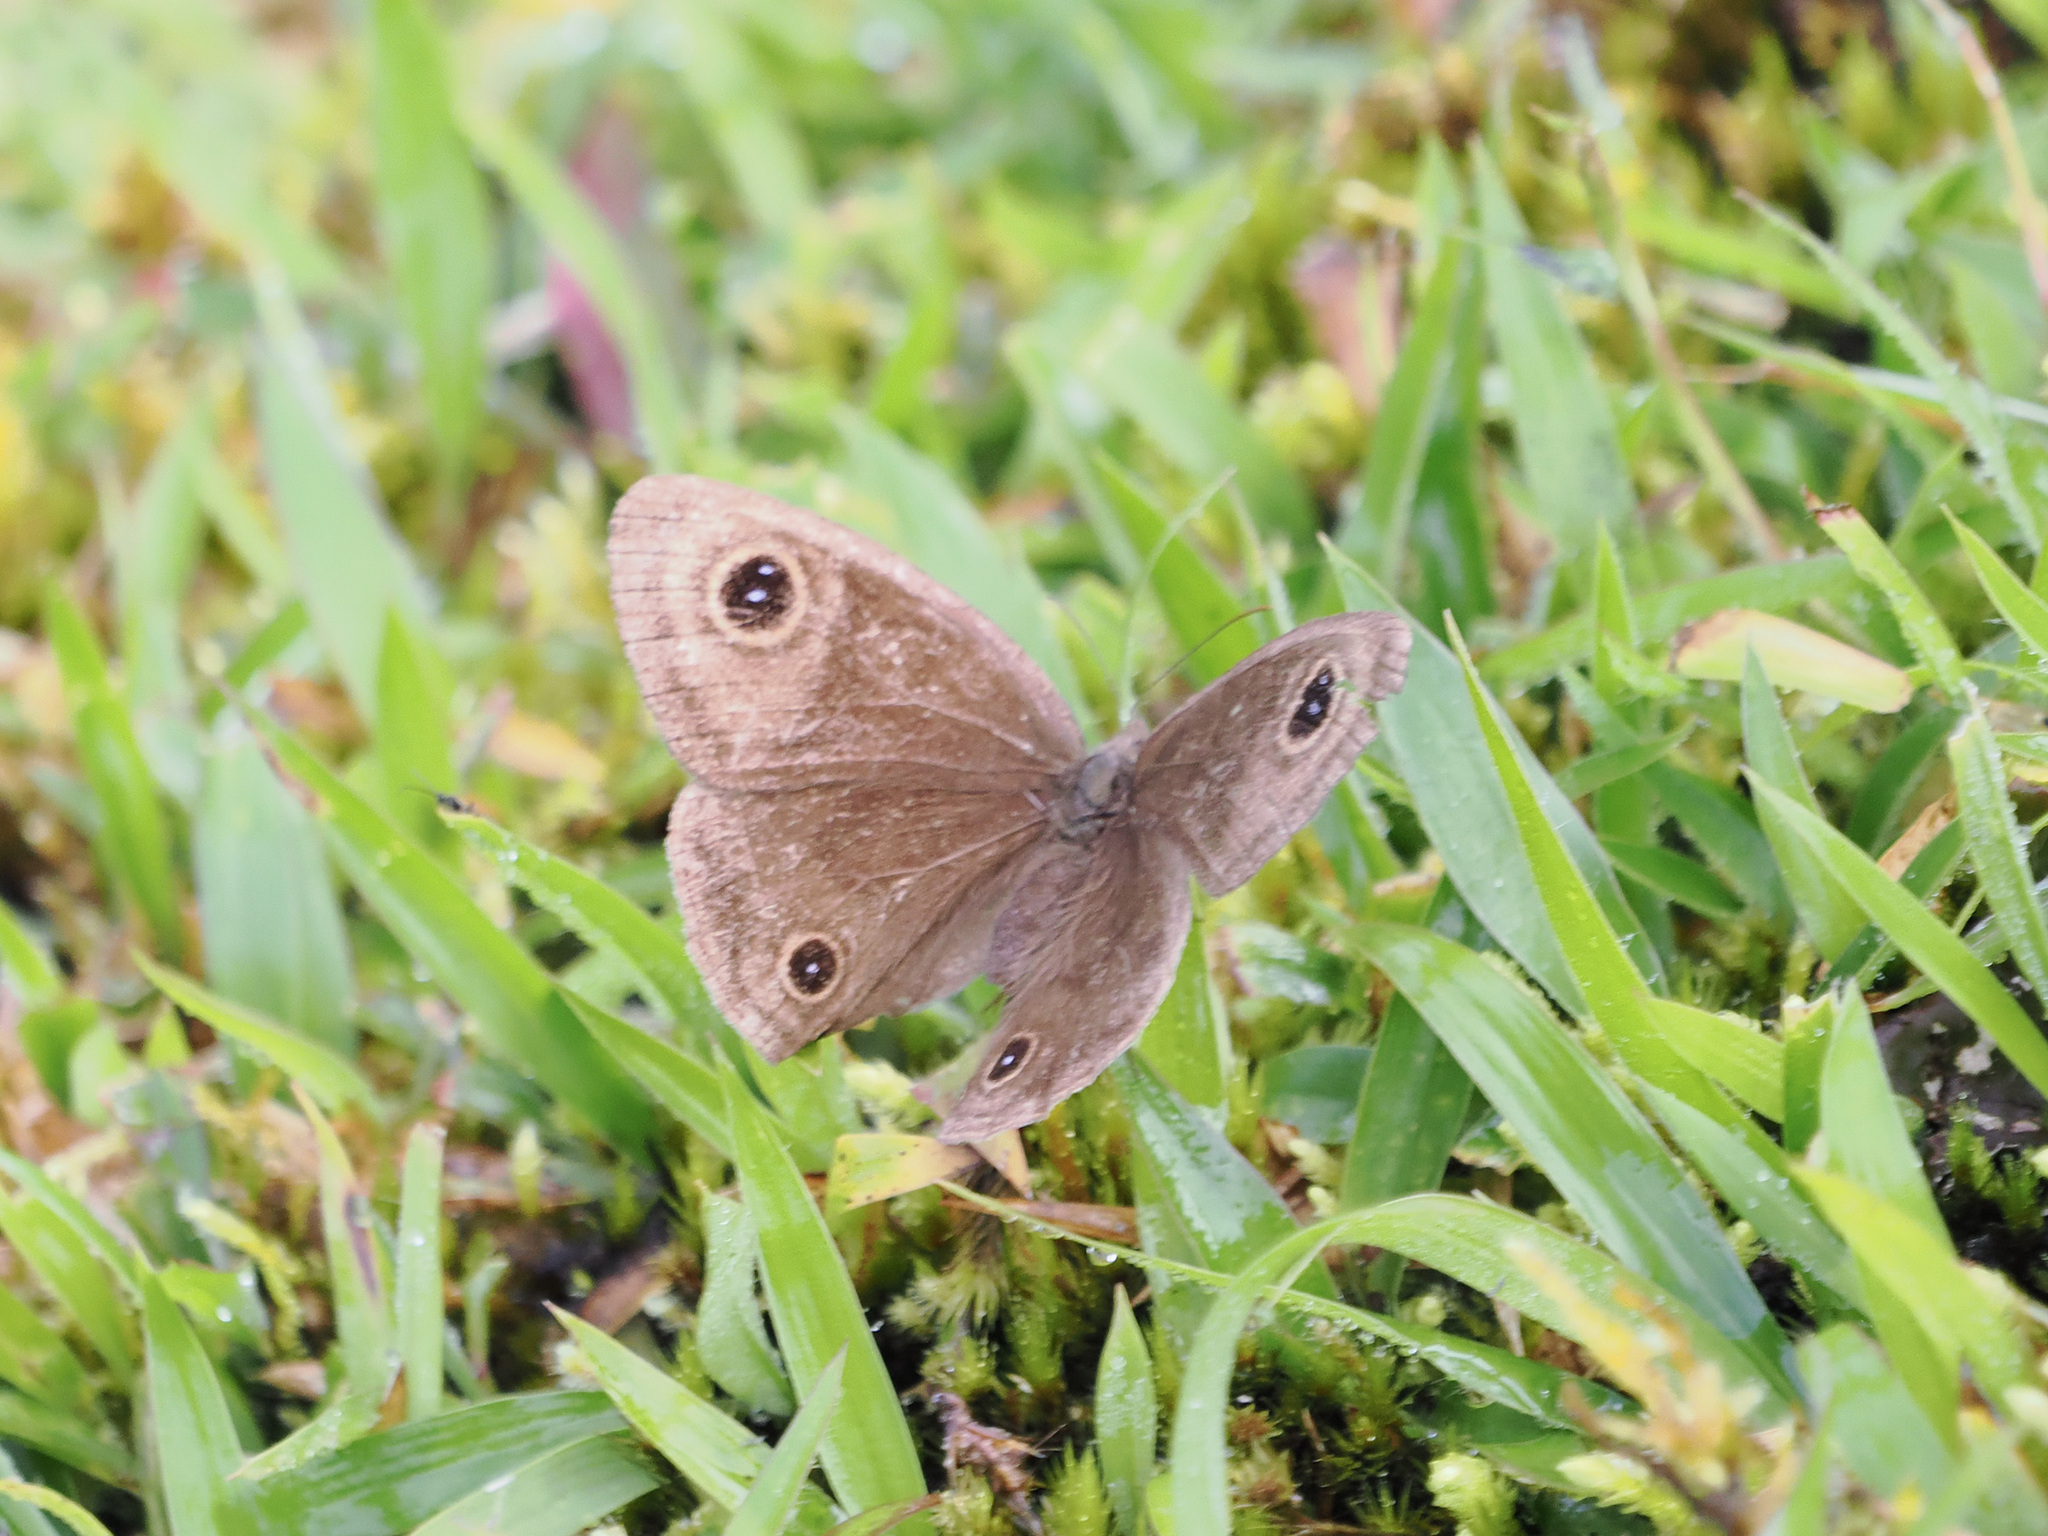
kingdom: Animalia
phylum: Arthropoda
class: Insecta
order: Lepidoptera
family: Nymphalidae
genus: Ypthima
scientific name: Ypthima ancus
